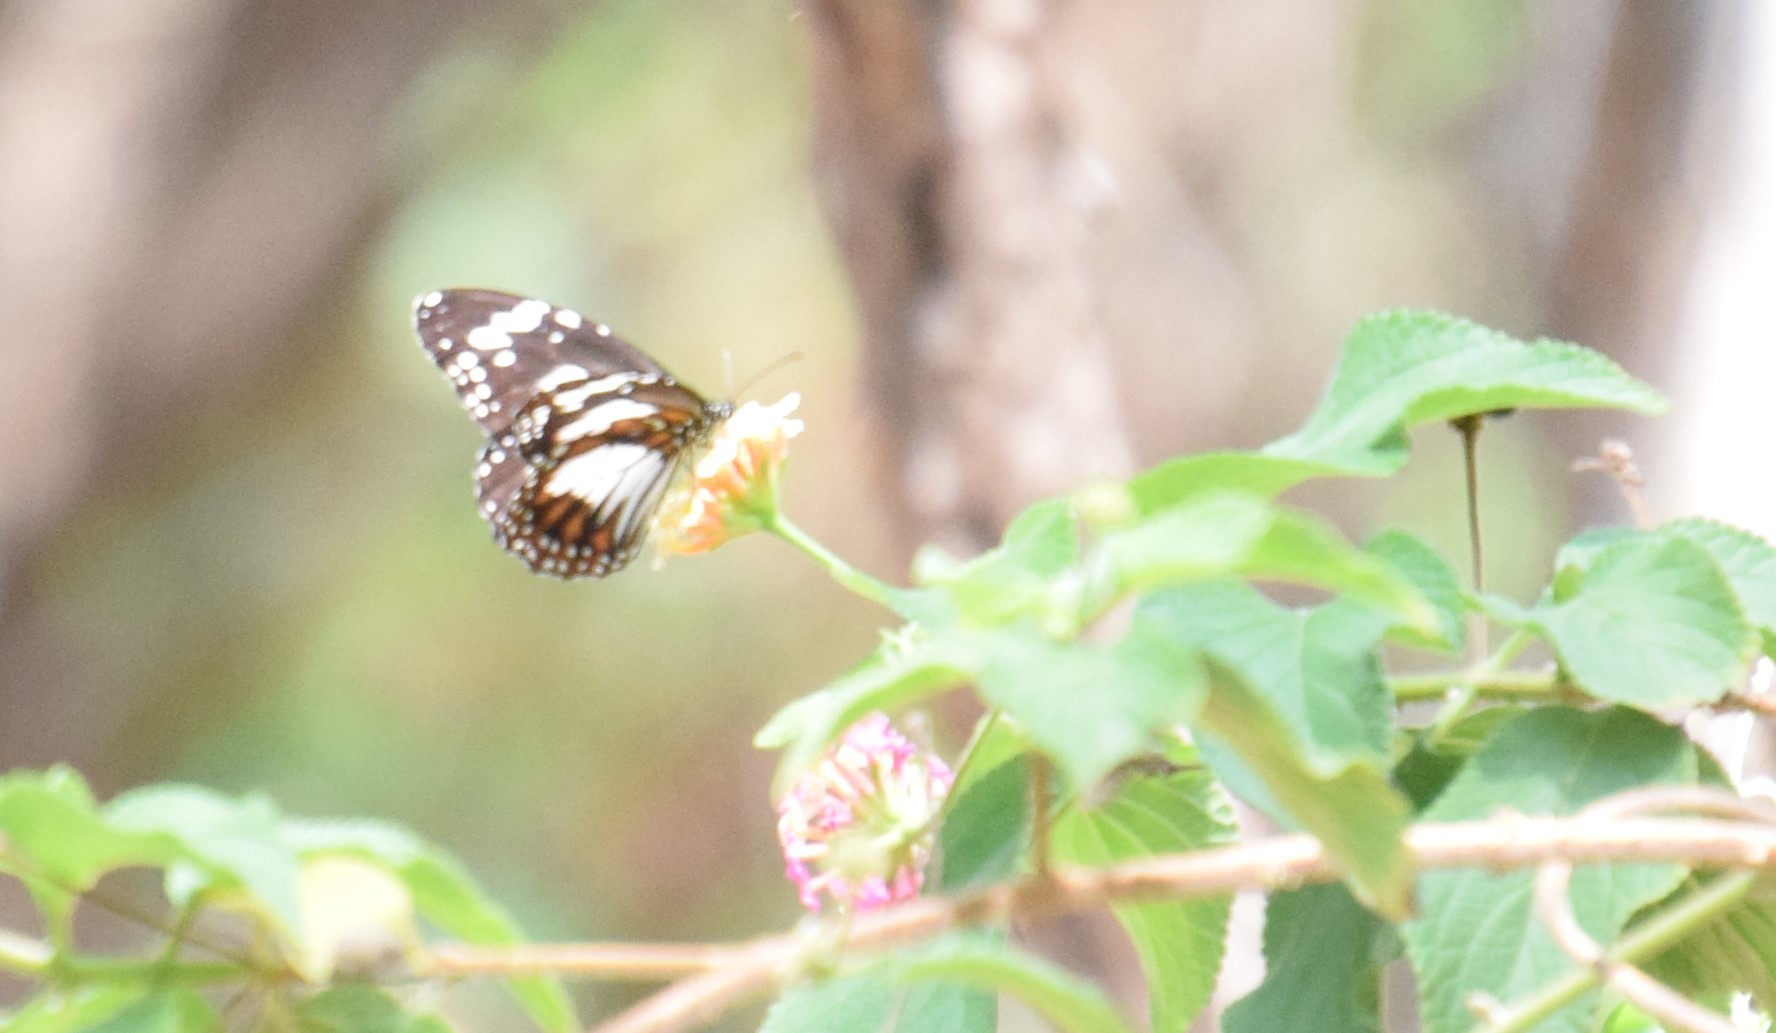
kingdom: Animalia
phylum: Arthropoda
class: Insecta
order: Lepidoptera
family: Nymphalidae
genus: Danaus
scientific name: Danaus affinis
